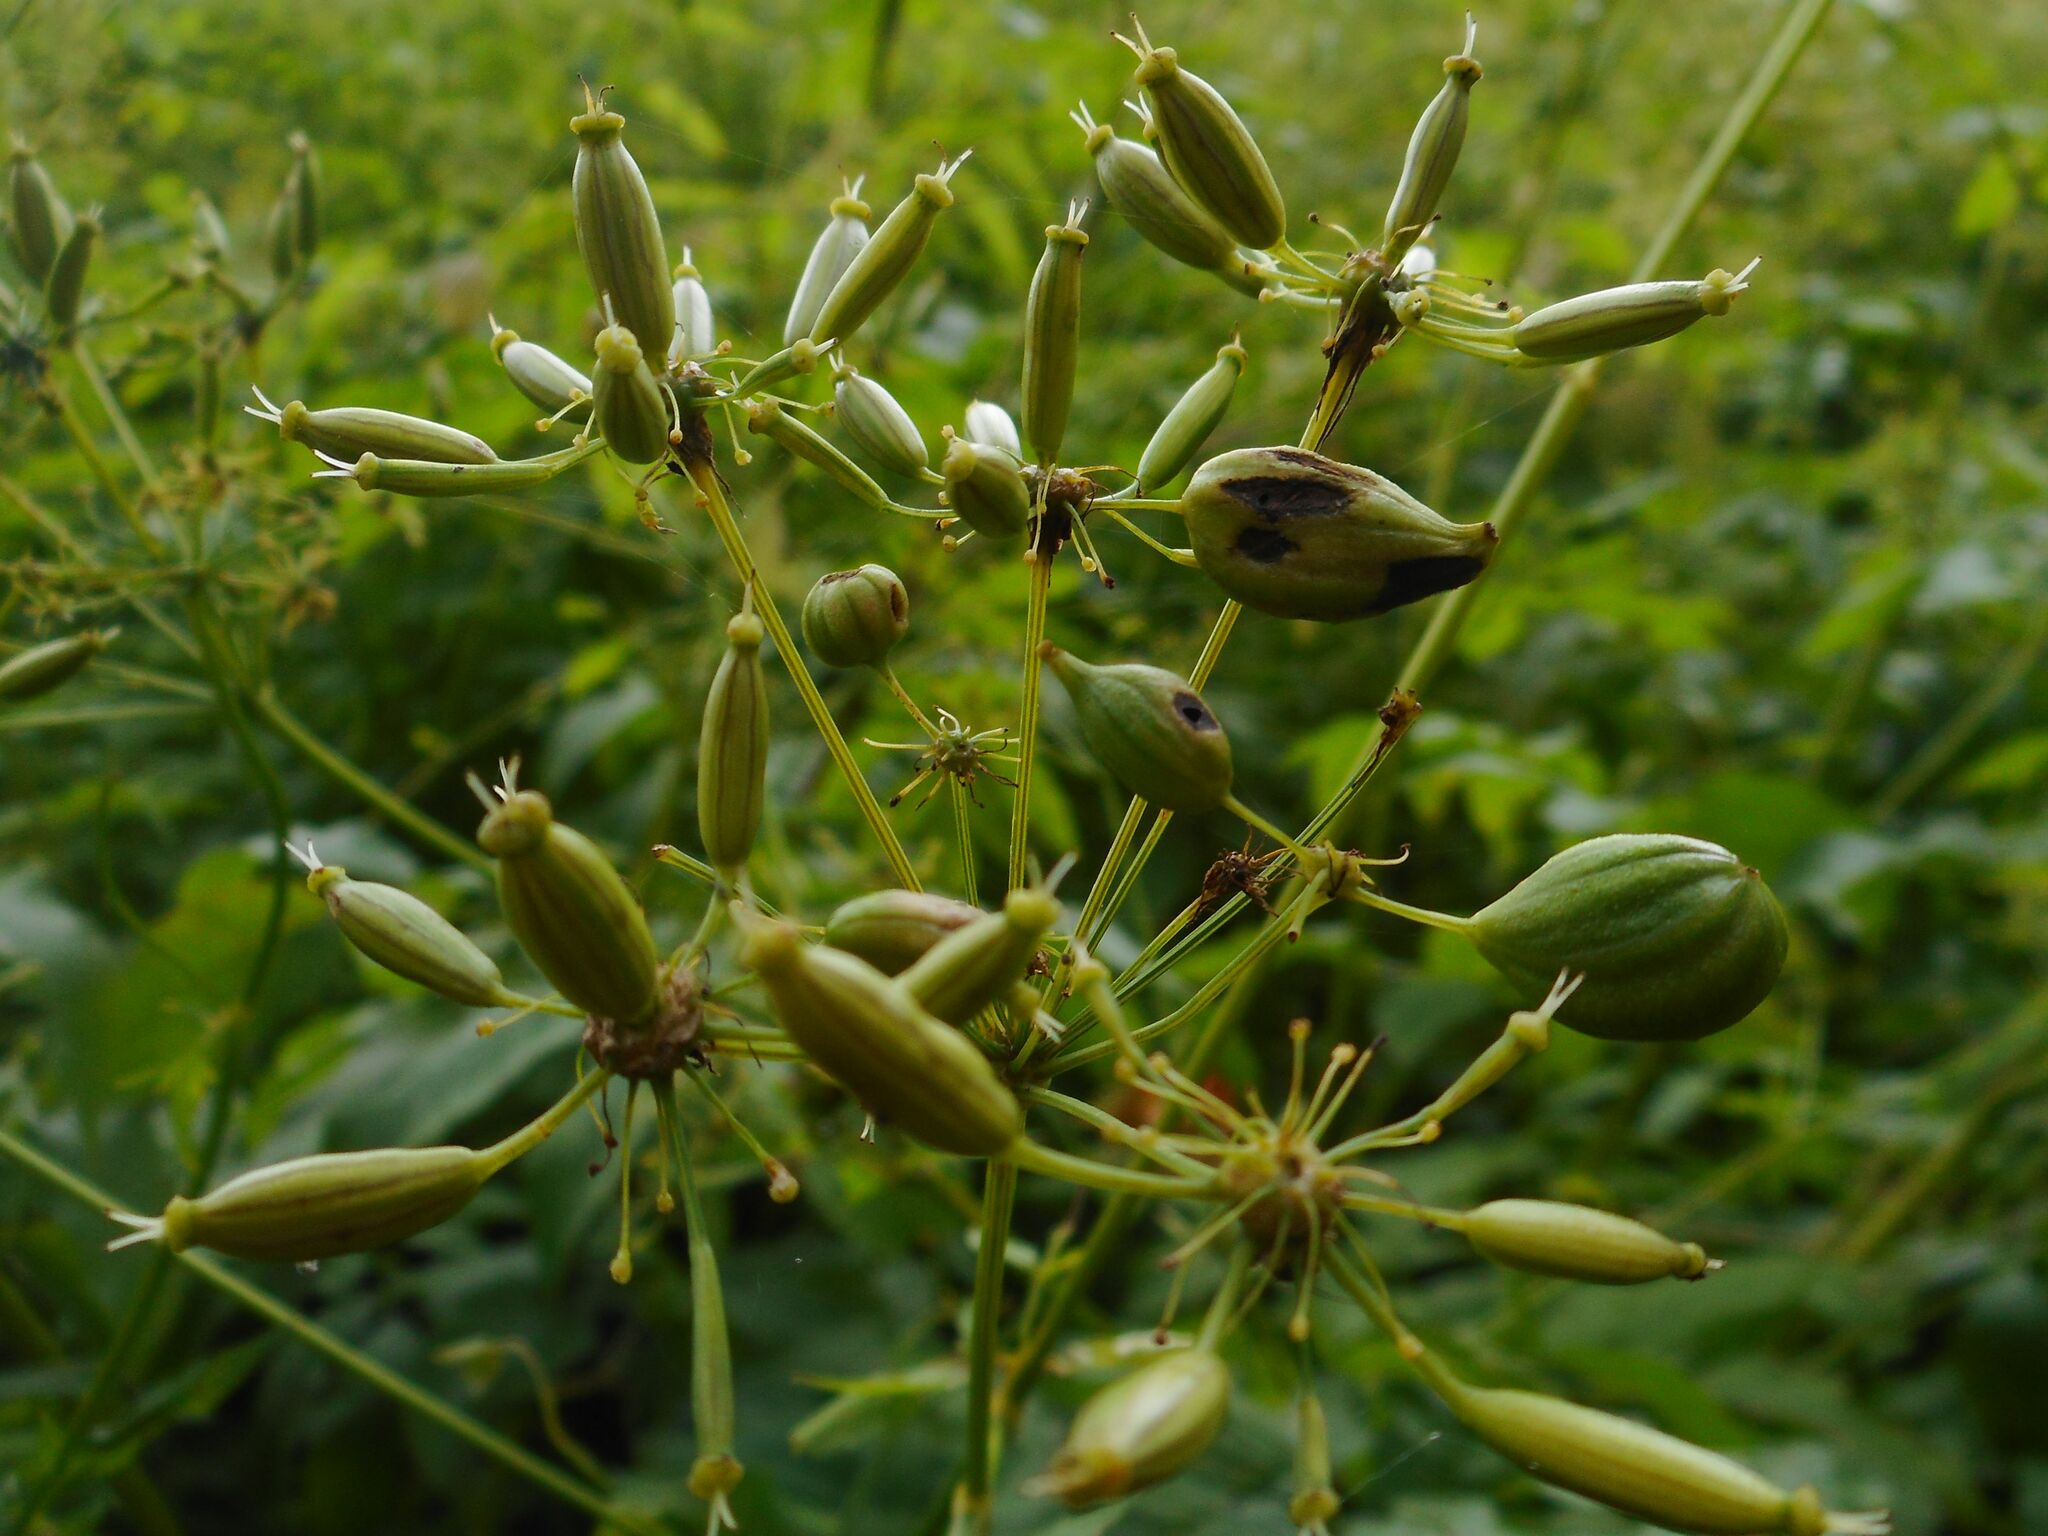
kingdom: Animalia
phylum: Arthropoda
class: Insecta
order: Diptera
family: Cecidomyiidae
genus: Kiefferia
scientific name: Kiefferia pericarpiicola
